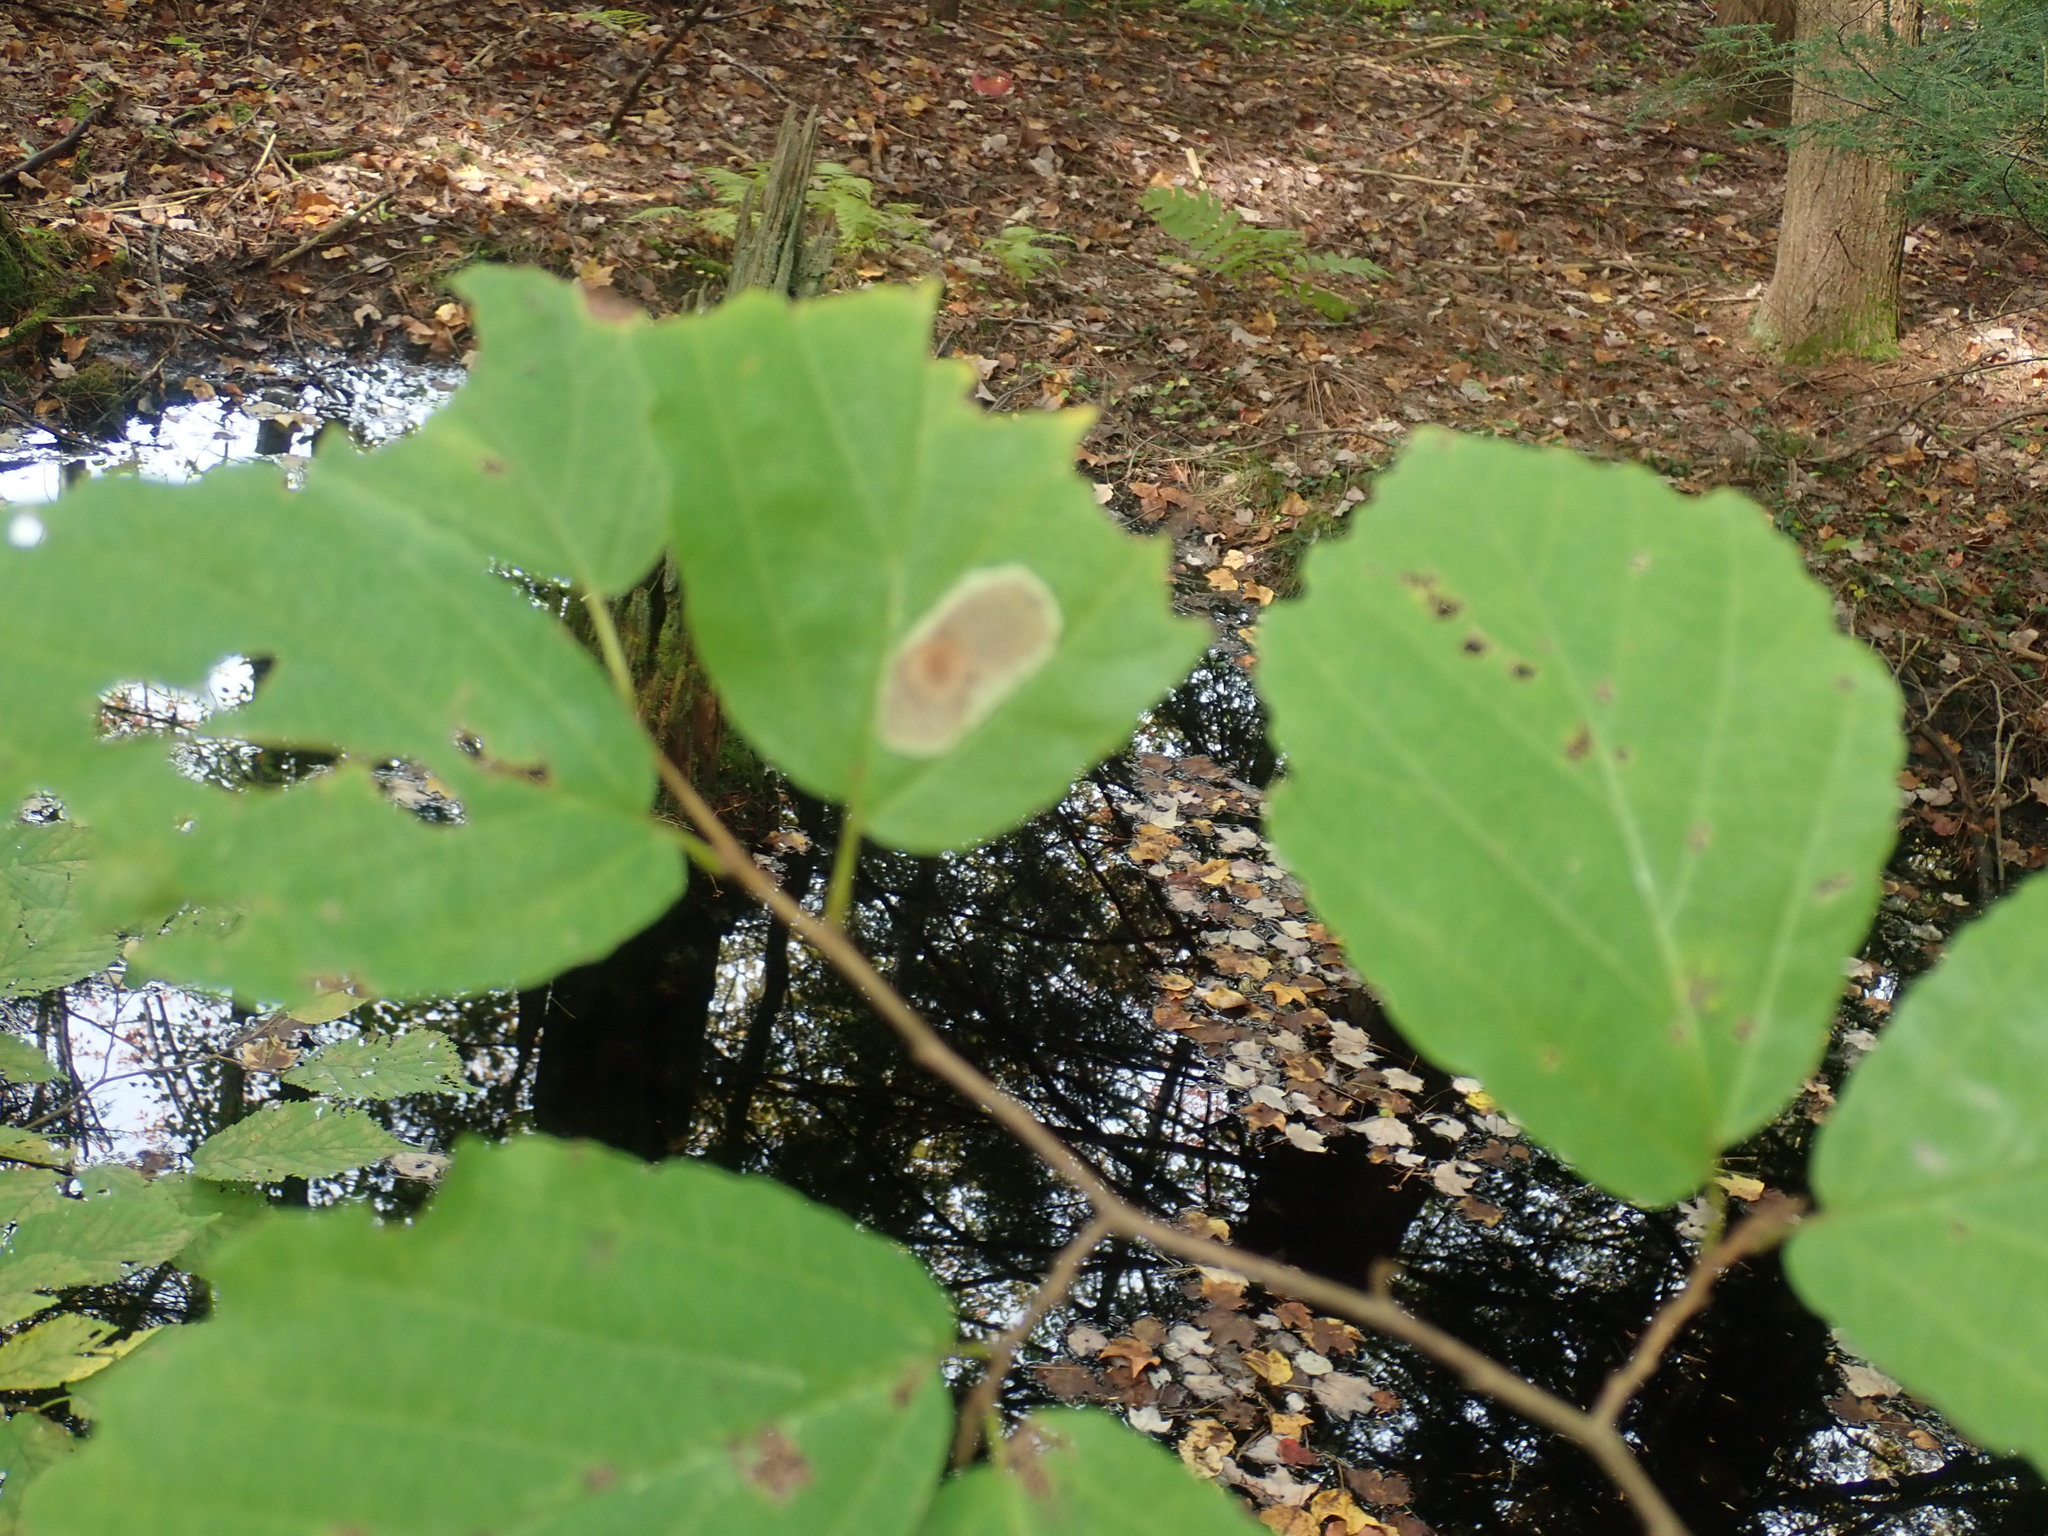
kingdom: Animalia
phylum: Arthropoda
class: Insecta
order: Lepidoptera
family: Gracillariidae
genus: Cameraria
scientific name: Cameraria hamameliella
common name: Witchhazel leafminer
